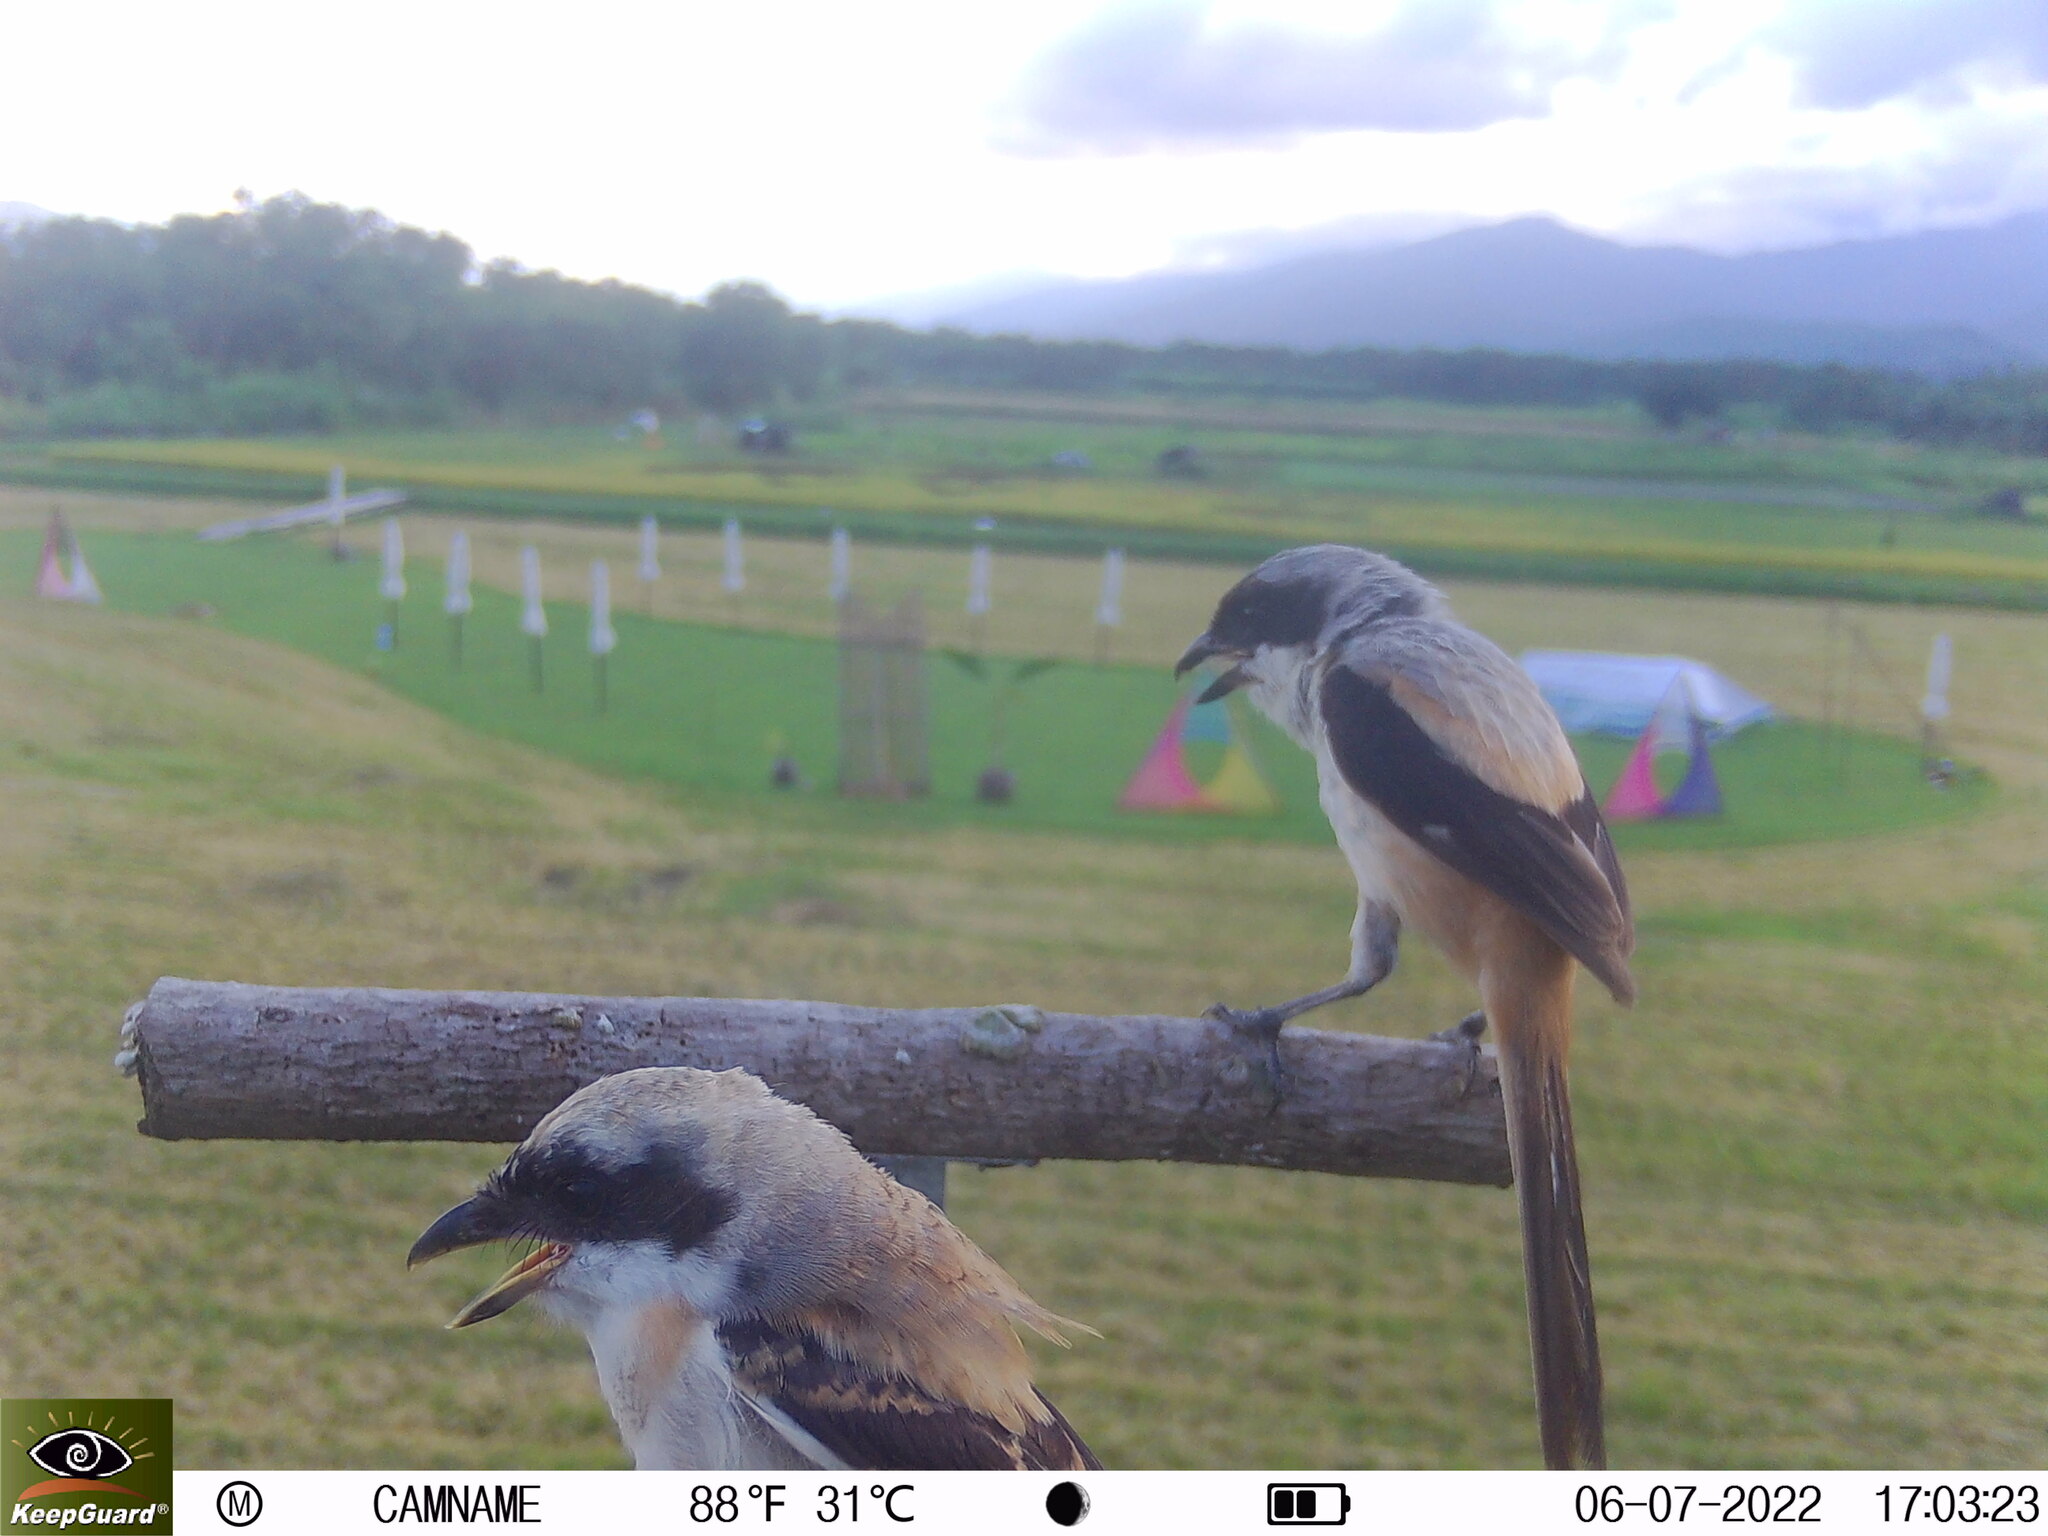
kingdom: Animalia
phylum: Chordata
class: Aves
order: Passeriformes
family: Laniidae
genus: Lanius
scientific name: Lanius schach
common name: Long-tailed shrike
